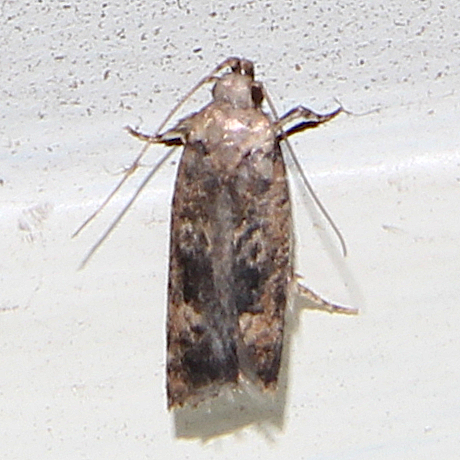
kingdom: Animalia
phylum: Arthropoda
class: Insecta
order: Lepidoptera
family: Gelechiidae
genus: Anisoplaca
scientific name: Anisoplaca cosmia
